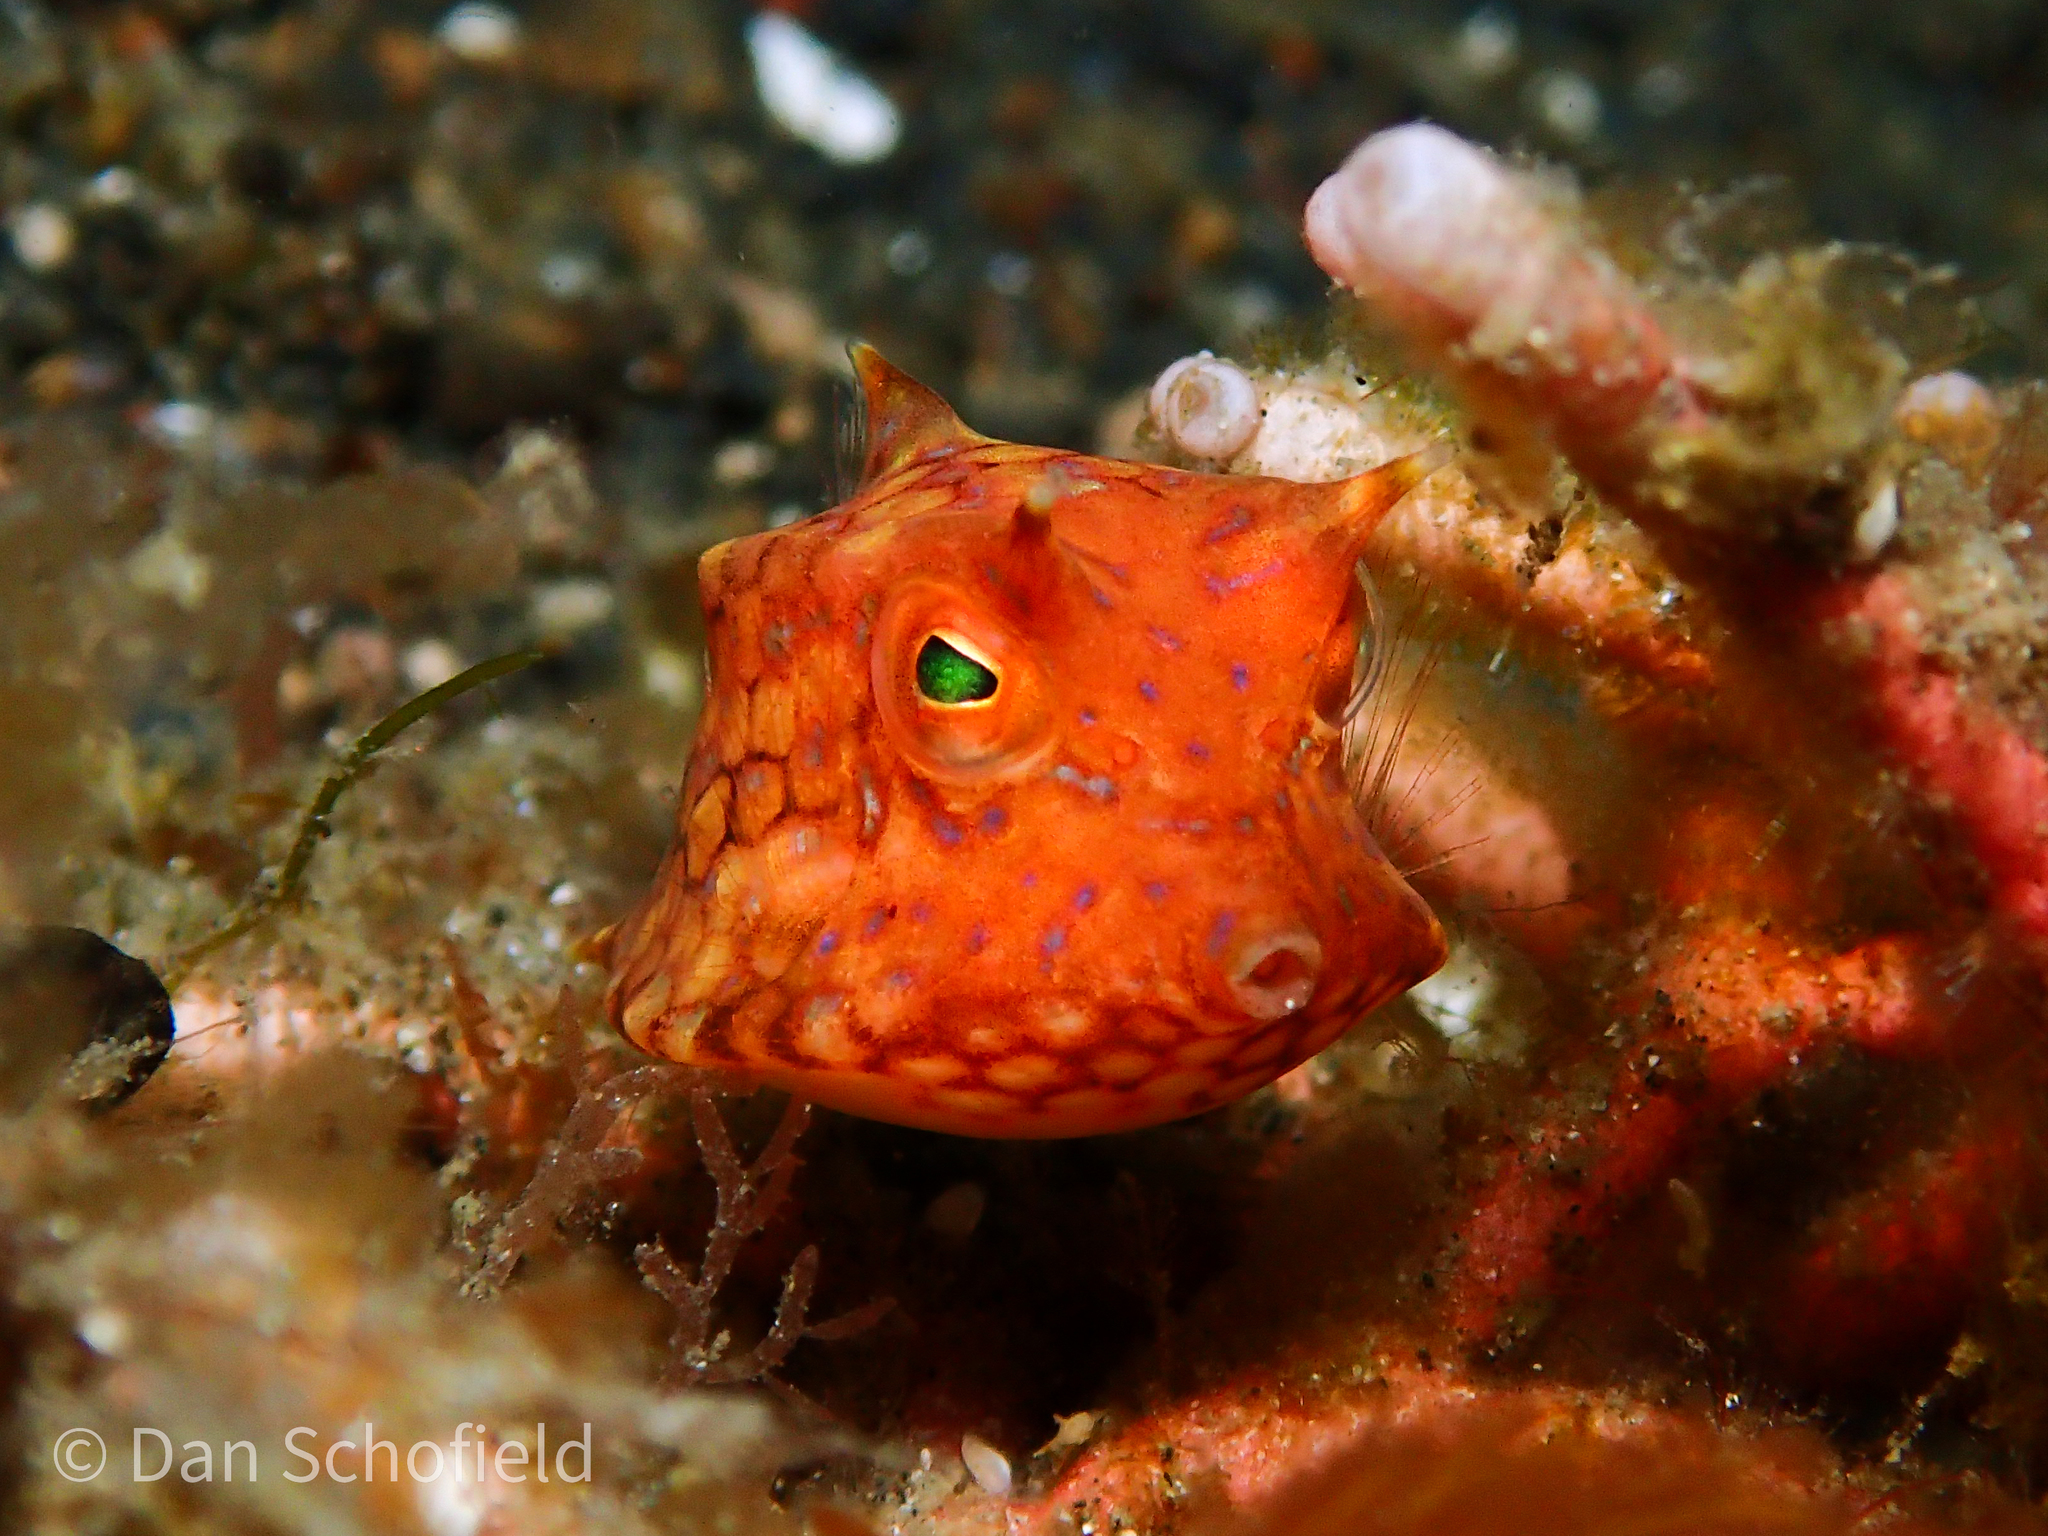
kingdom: Animalia
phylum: Chordata
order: Tetraodontiformes
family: Ostraciidae
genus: Lactoria
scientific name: Lactoria fornasini
